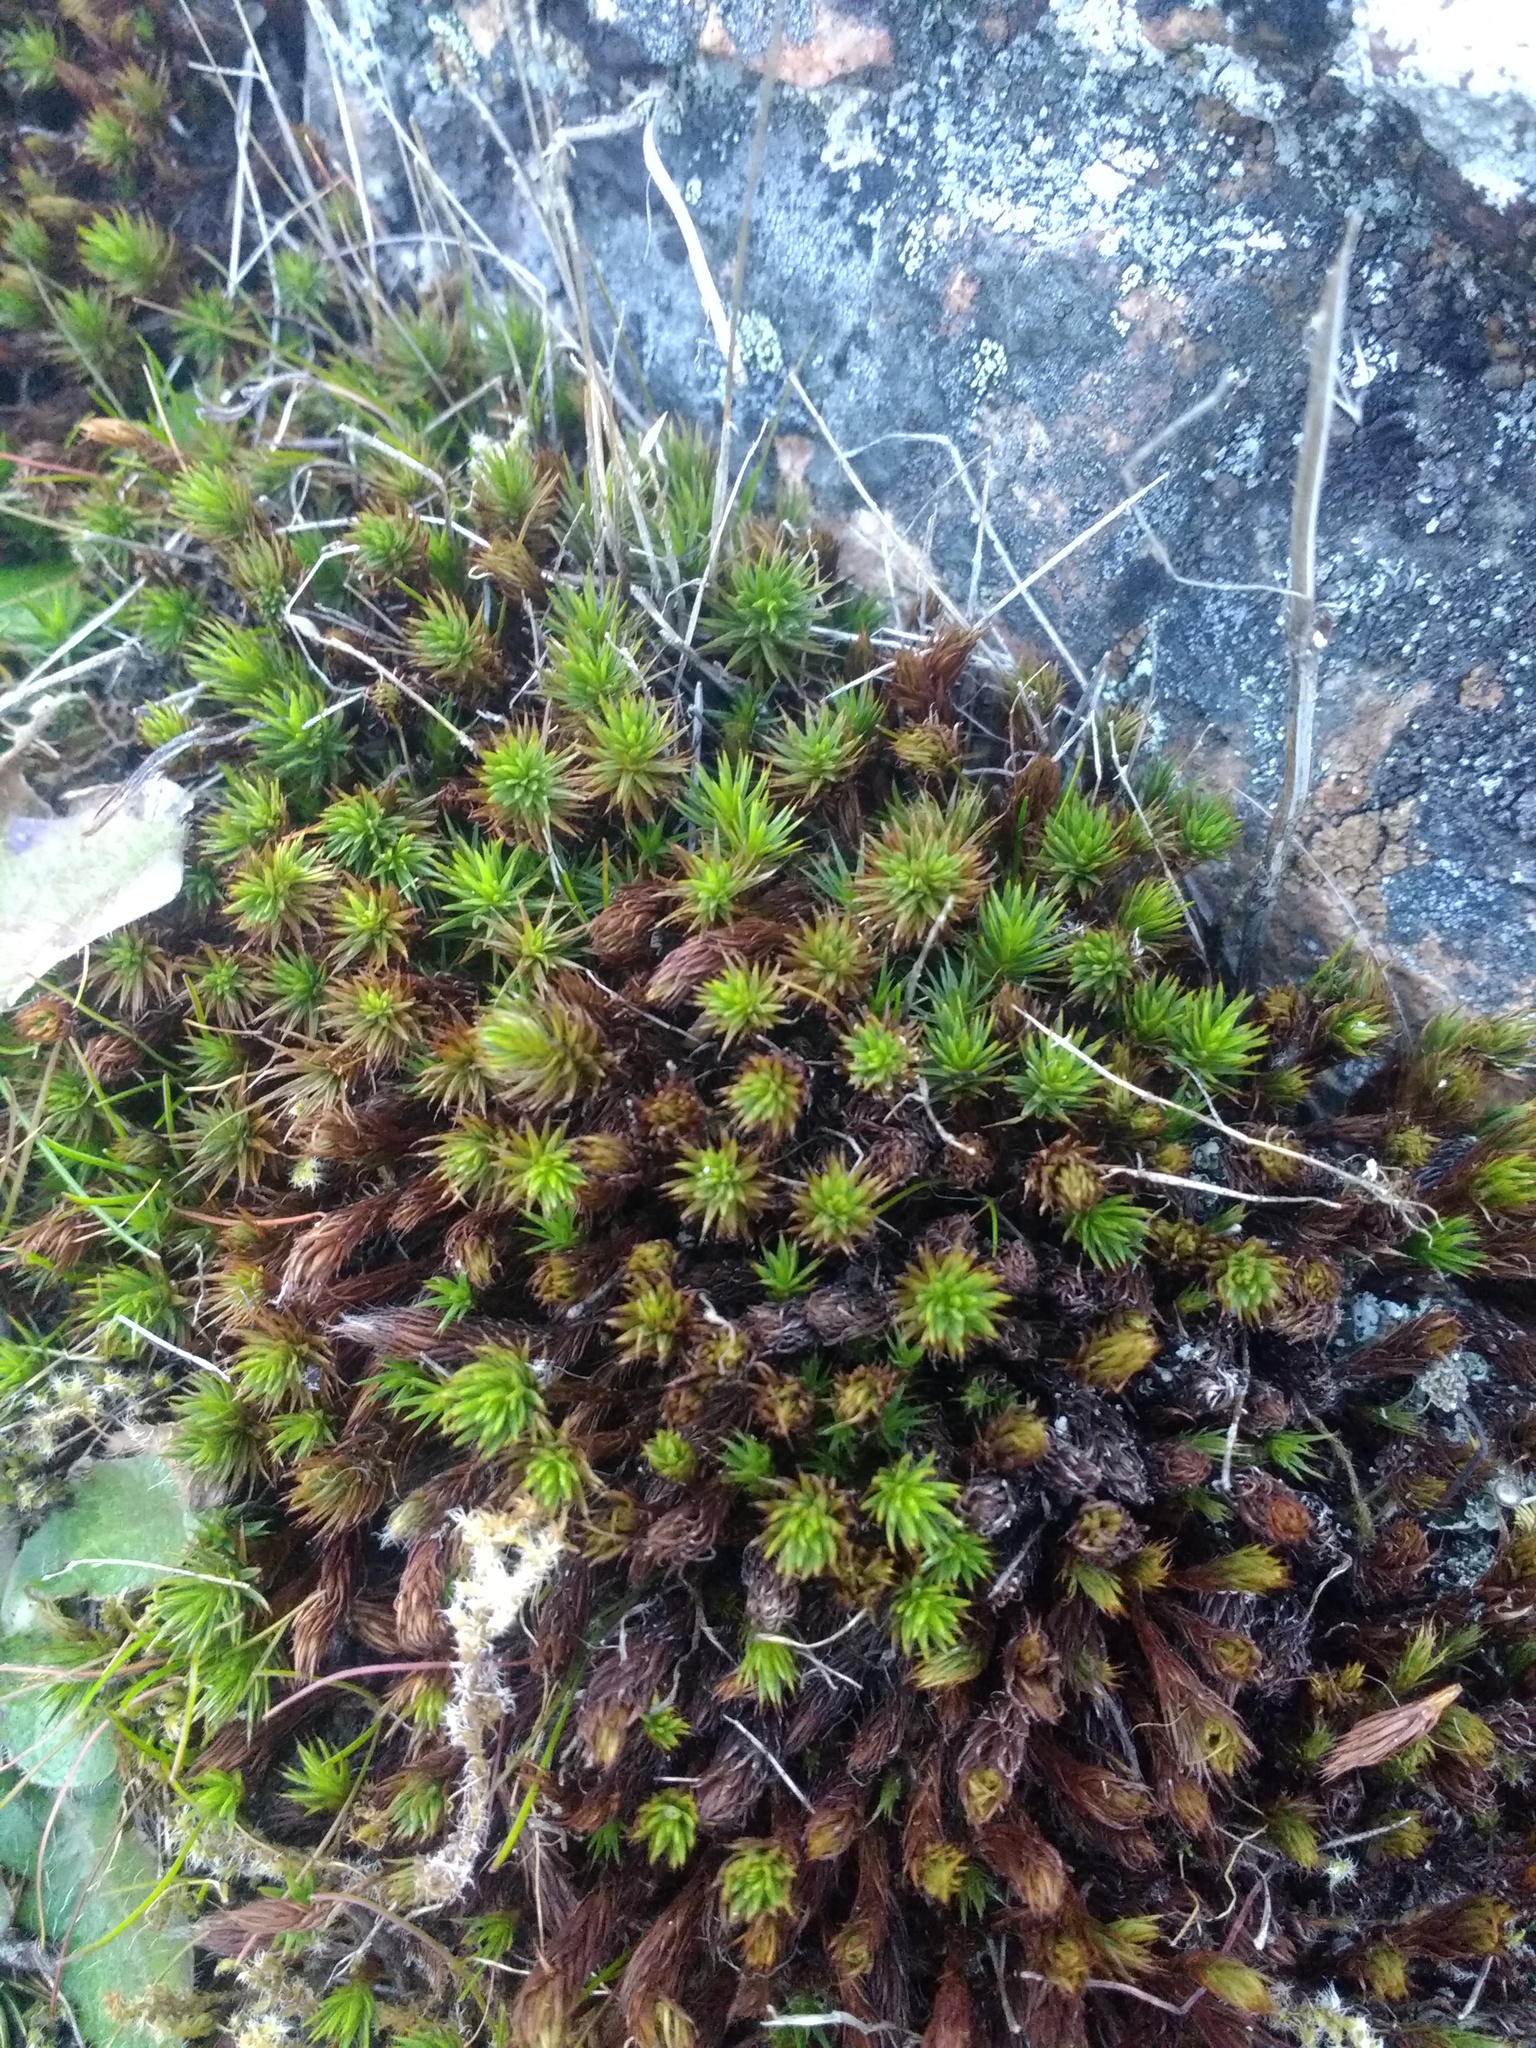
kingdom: Plantae
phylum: Bryophyta
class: Polytrichopsida
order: Polytrichales
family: Polytrichaceae
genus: Polytrichum
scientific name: Polytrichum piliferum
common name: Bristly haircap
